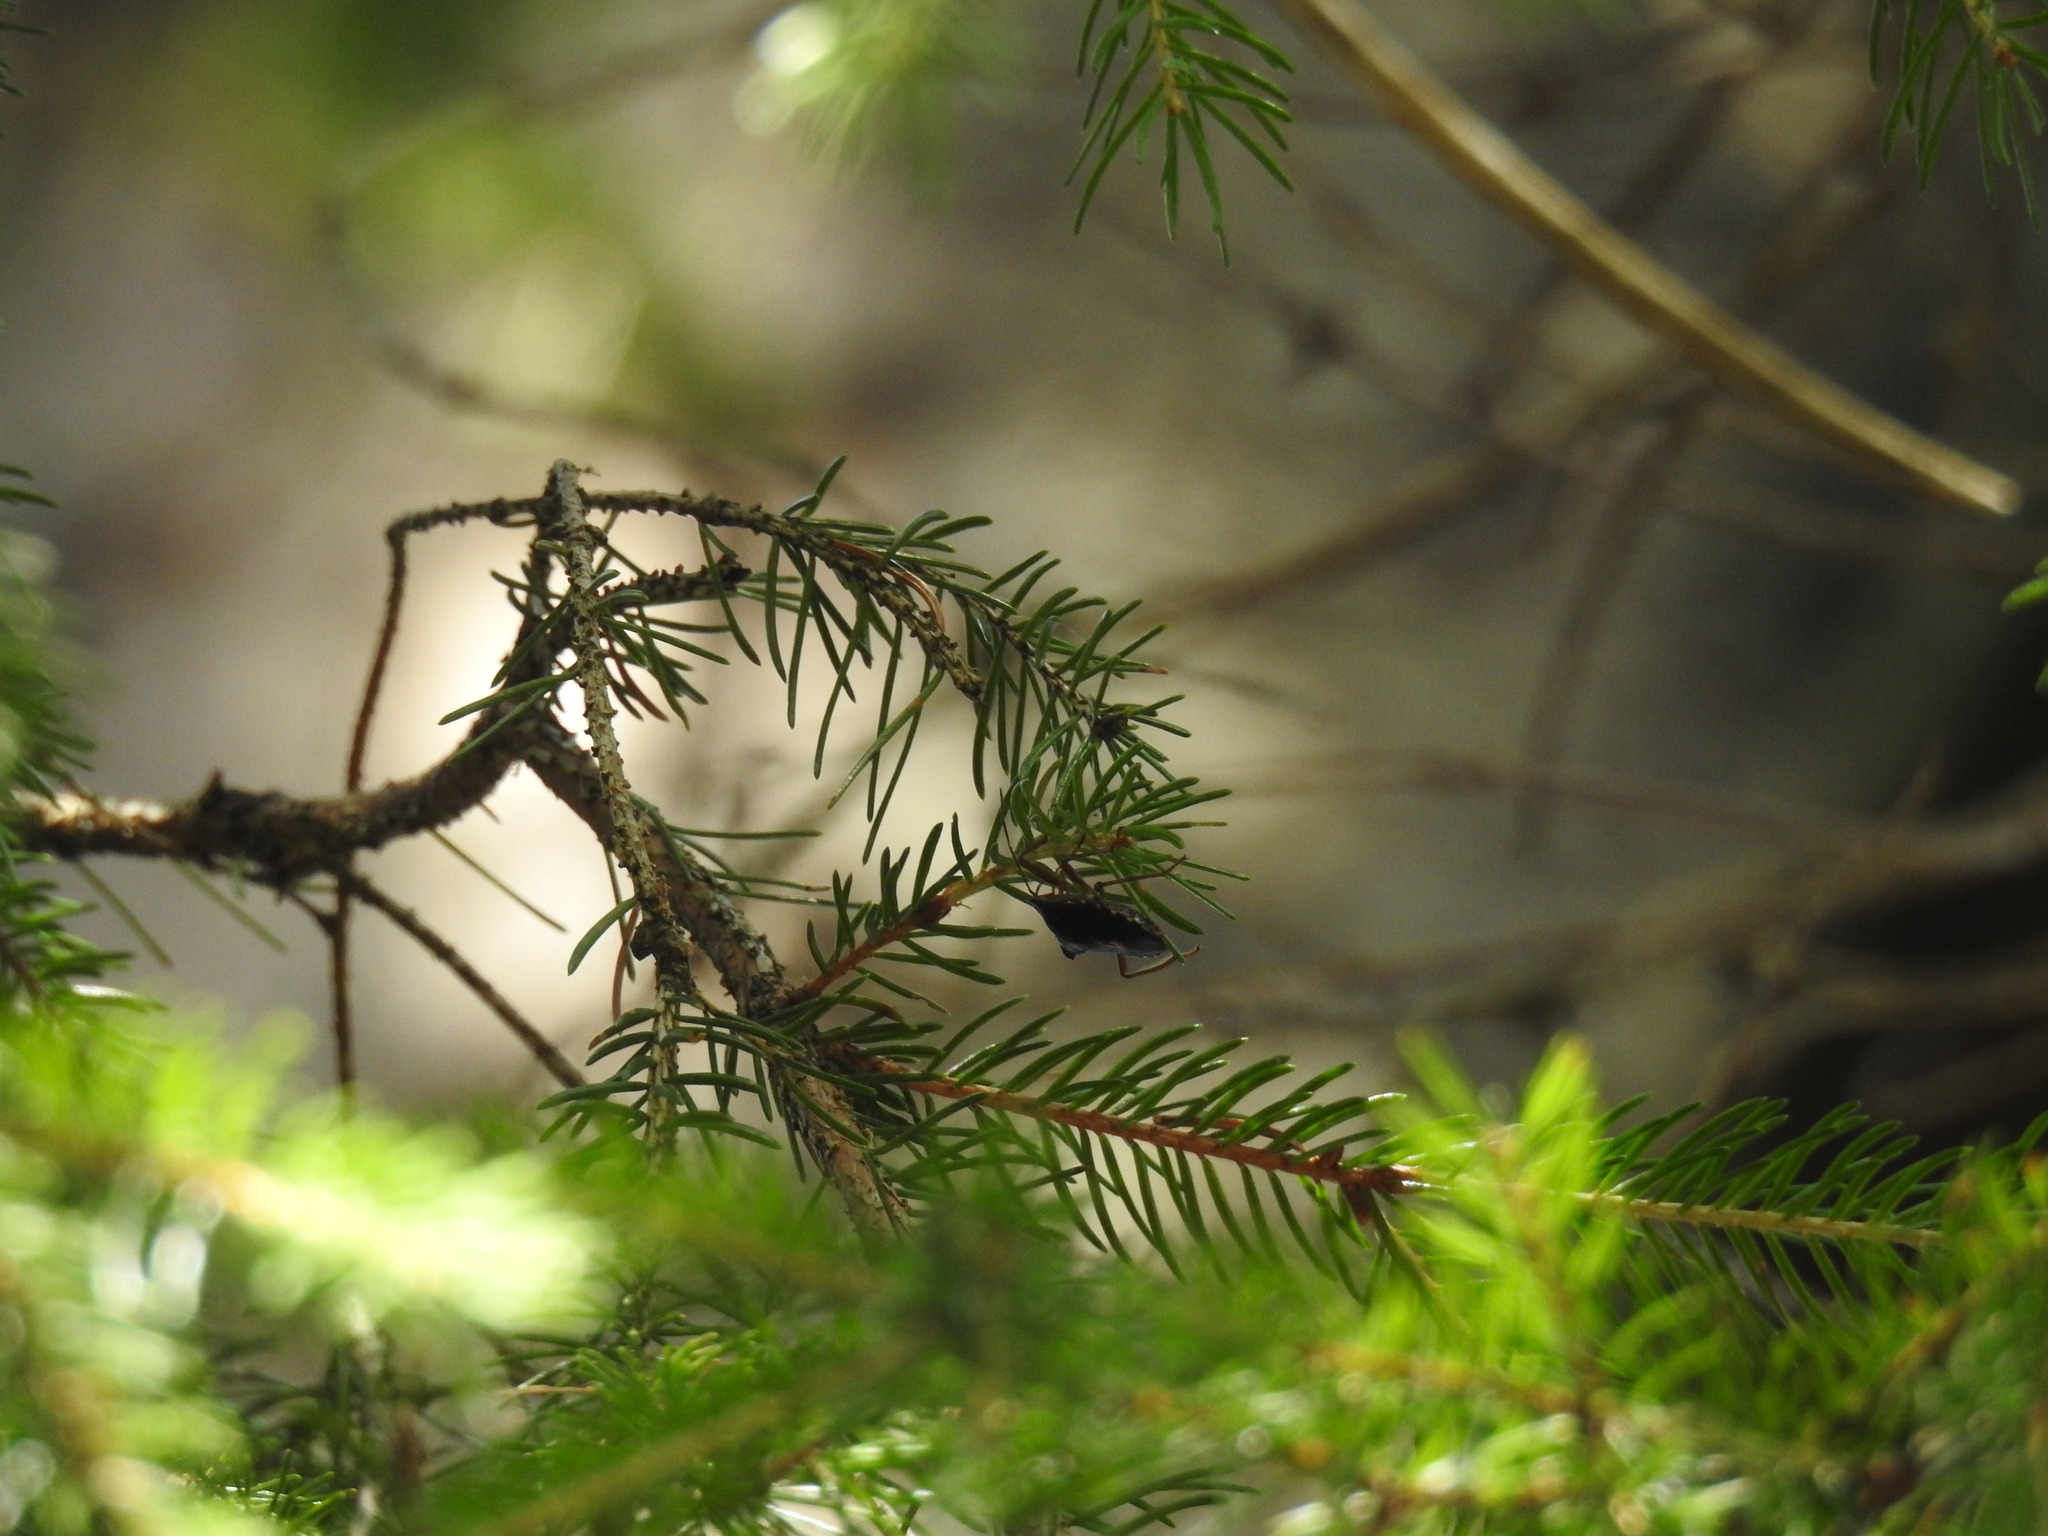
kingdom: Animalia
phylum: Arthropoda
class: Insecta
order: Hemiptera
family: Pentatomidae
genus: Pentatoma
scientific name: Pentatoma rufipes
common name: Forest bug
